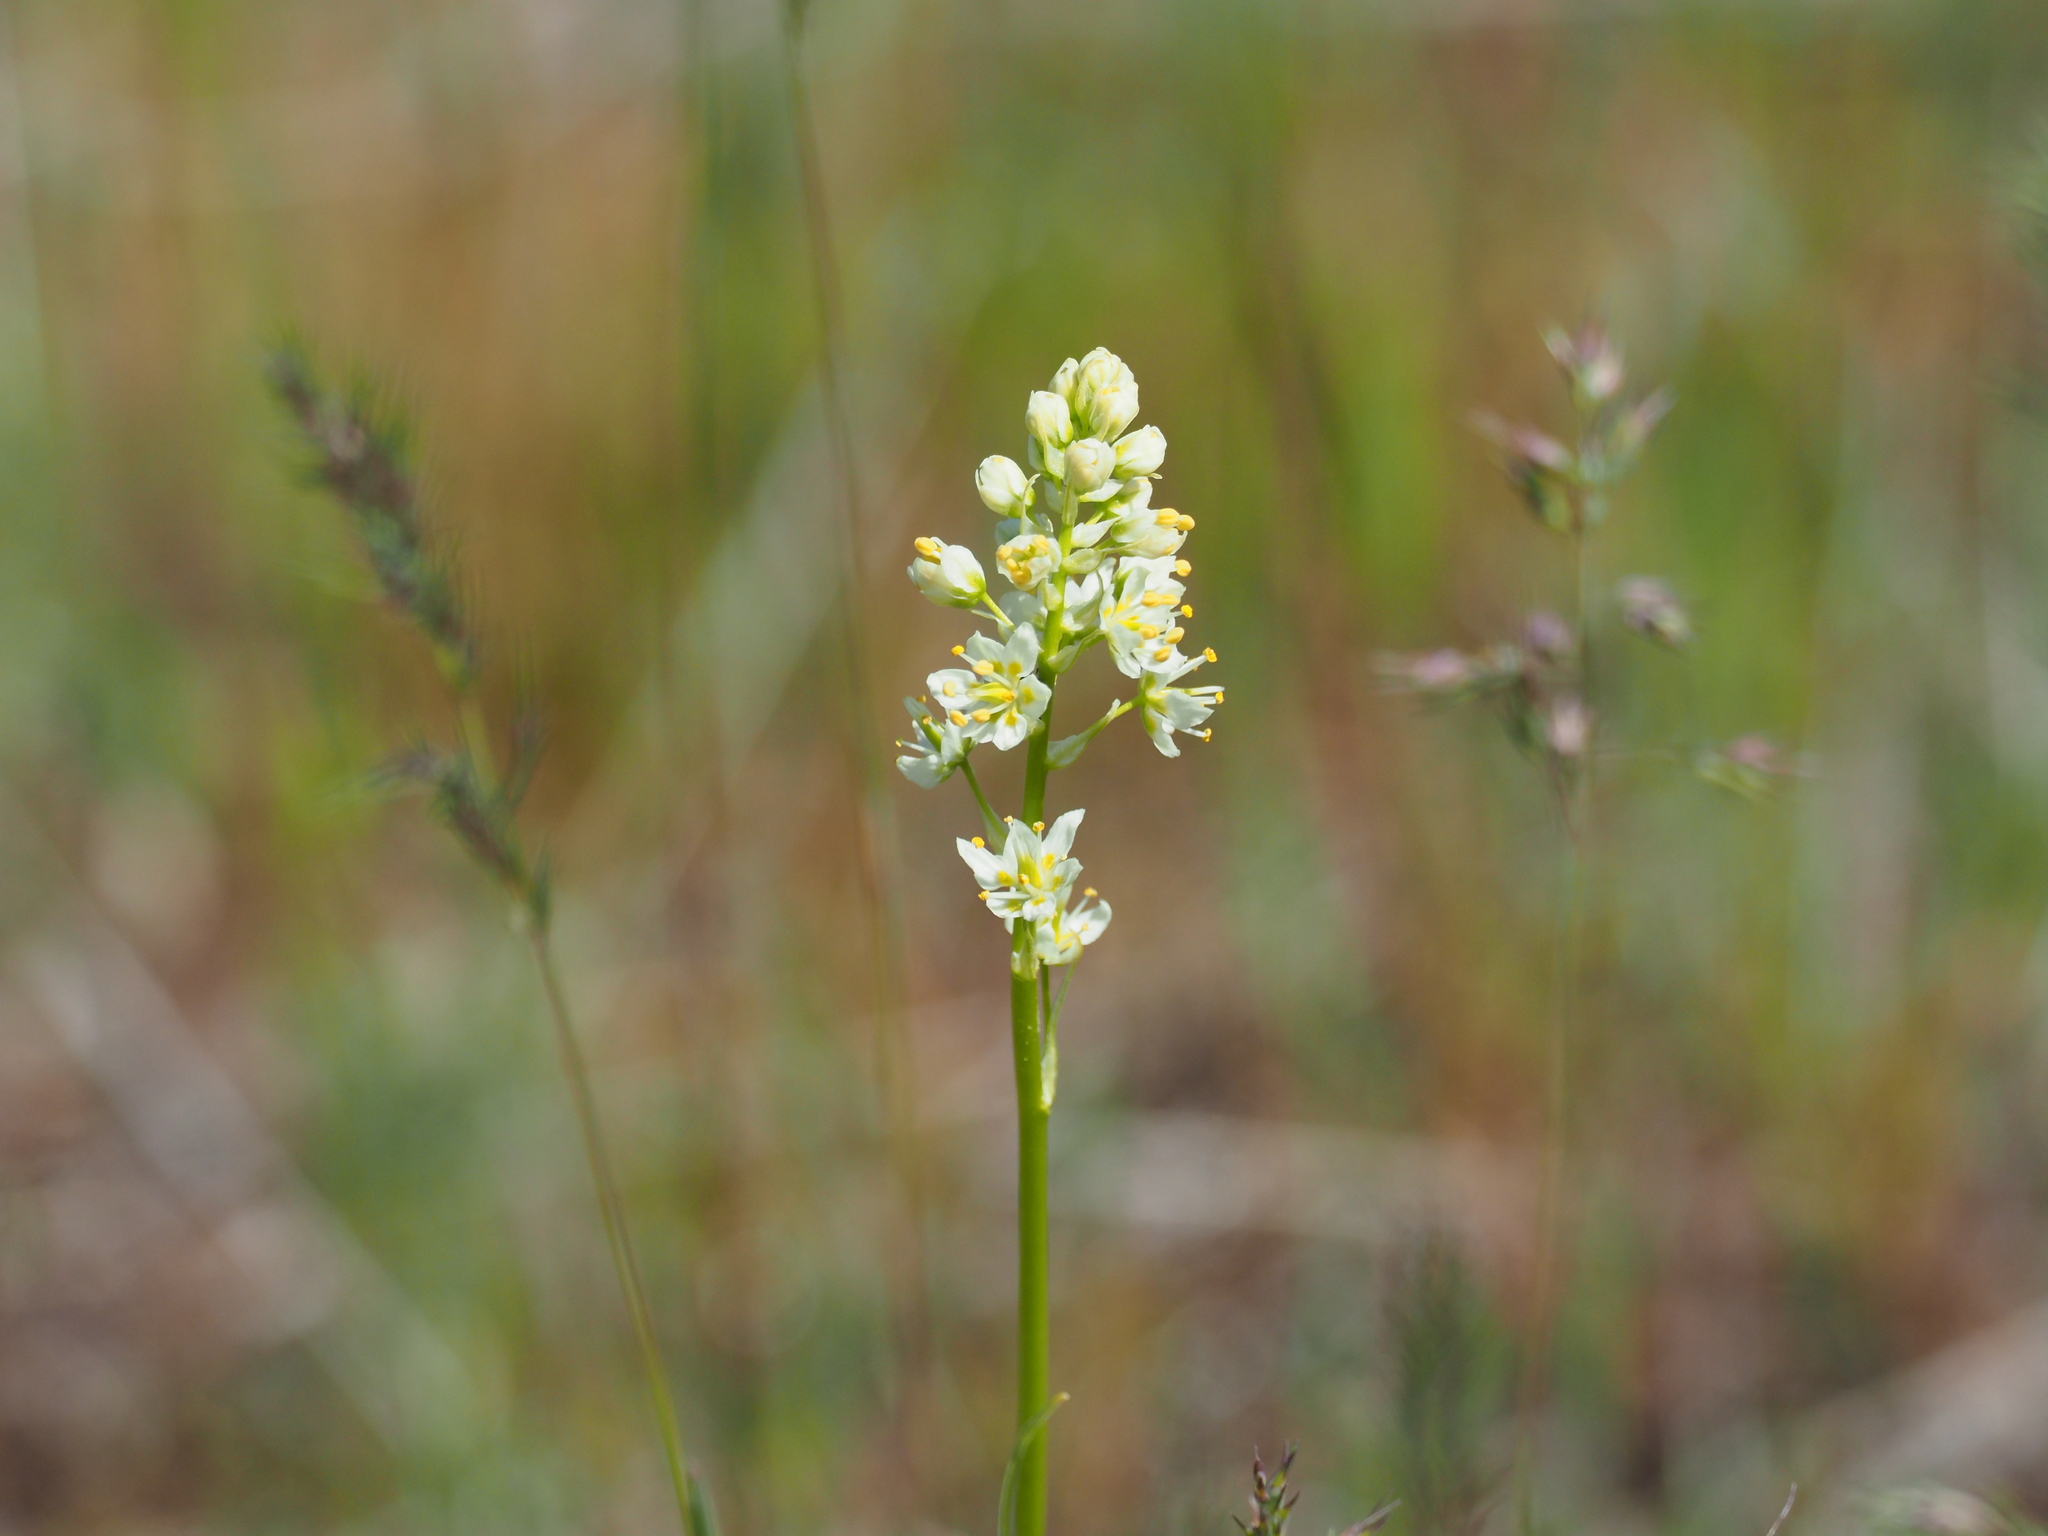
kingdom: Plantae
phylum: Tracheophyta
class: Liliopsida
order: Liliales
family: Melanthiaceae
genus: Toxicoscordion
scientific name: Toxicoscordion venenosum
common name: Meadow death camas
